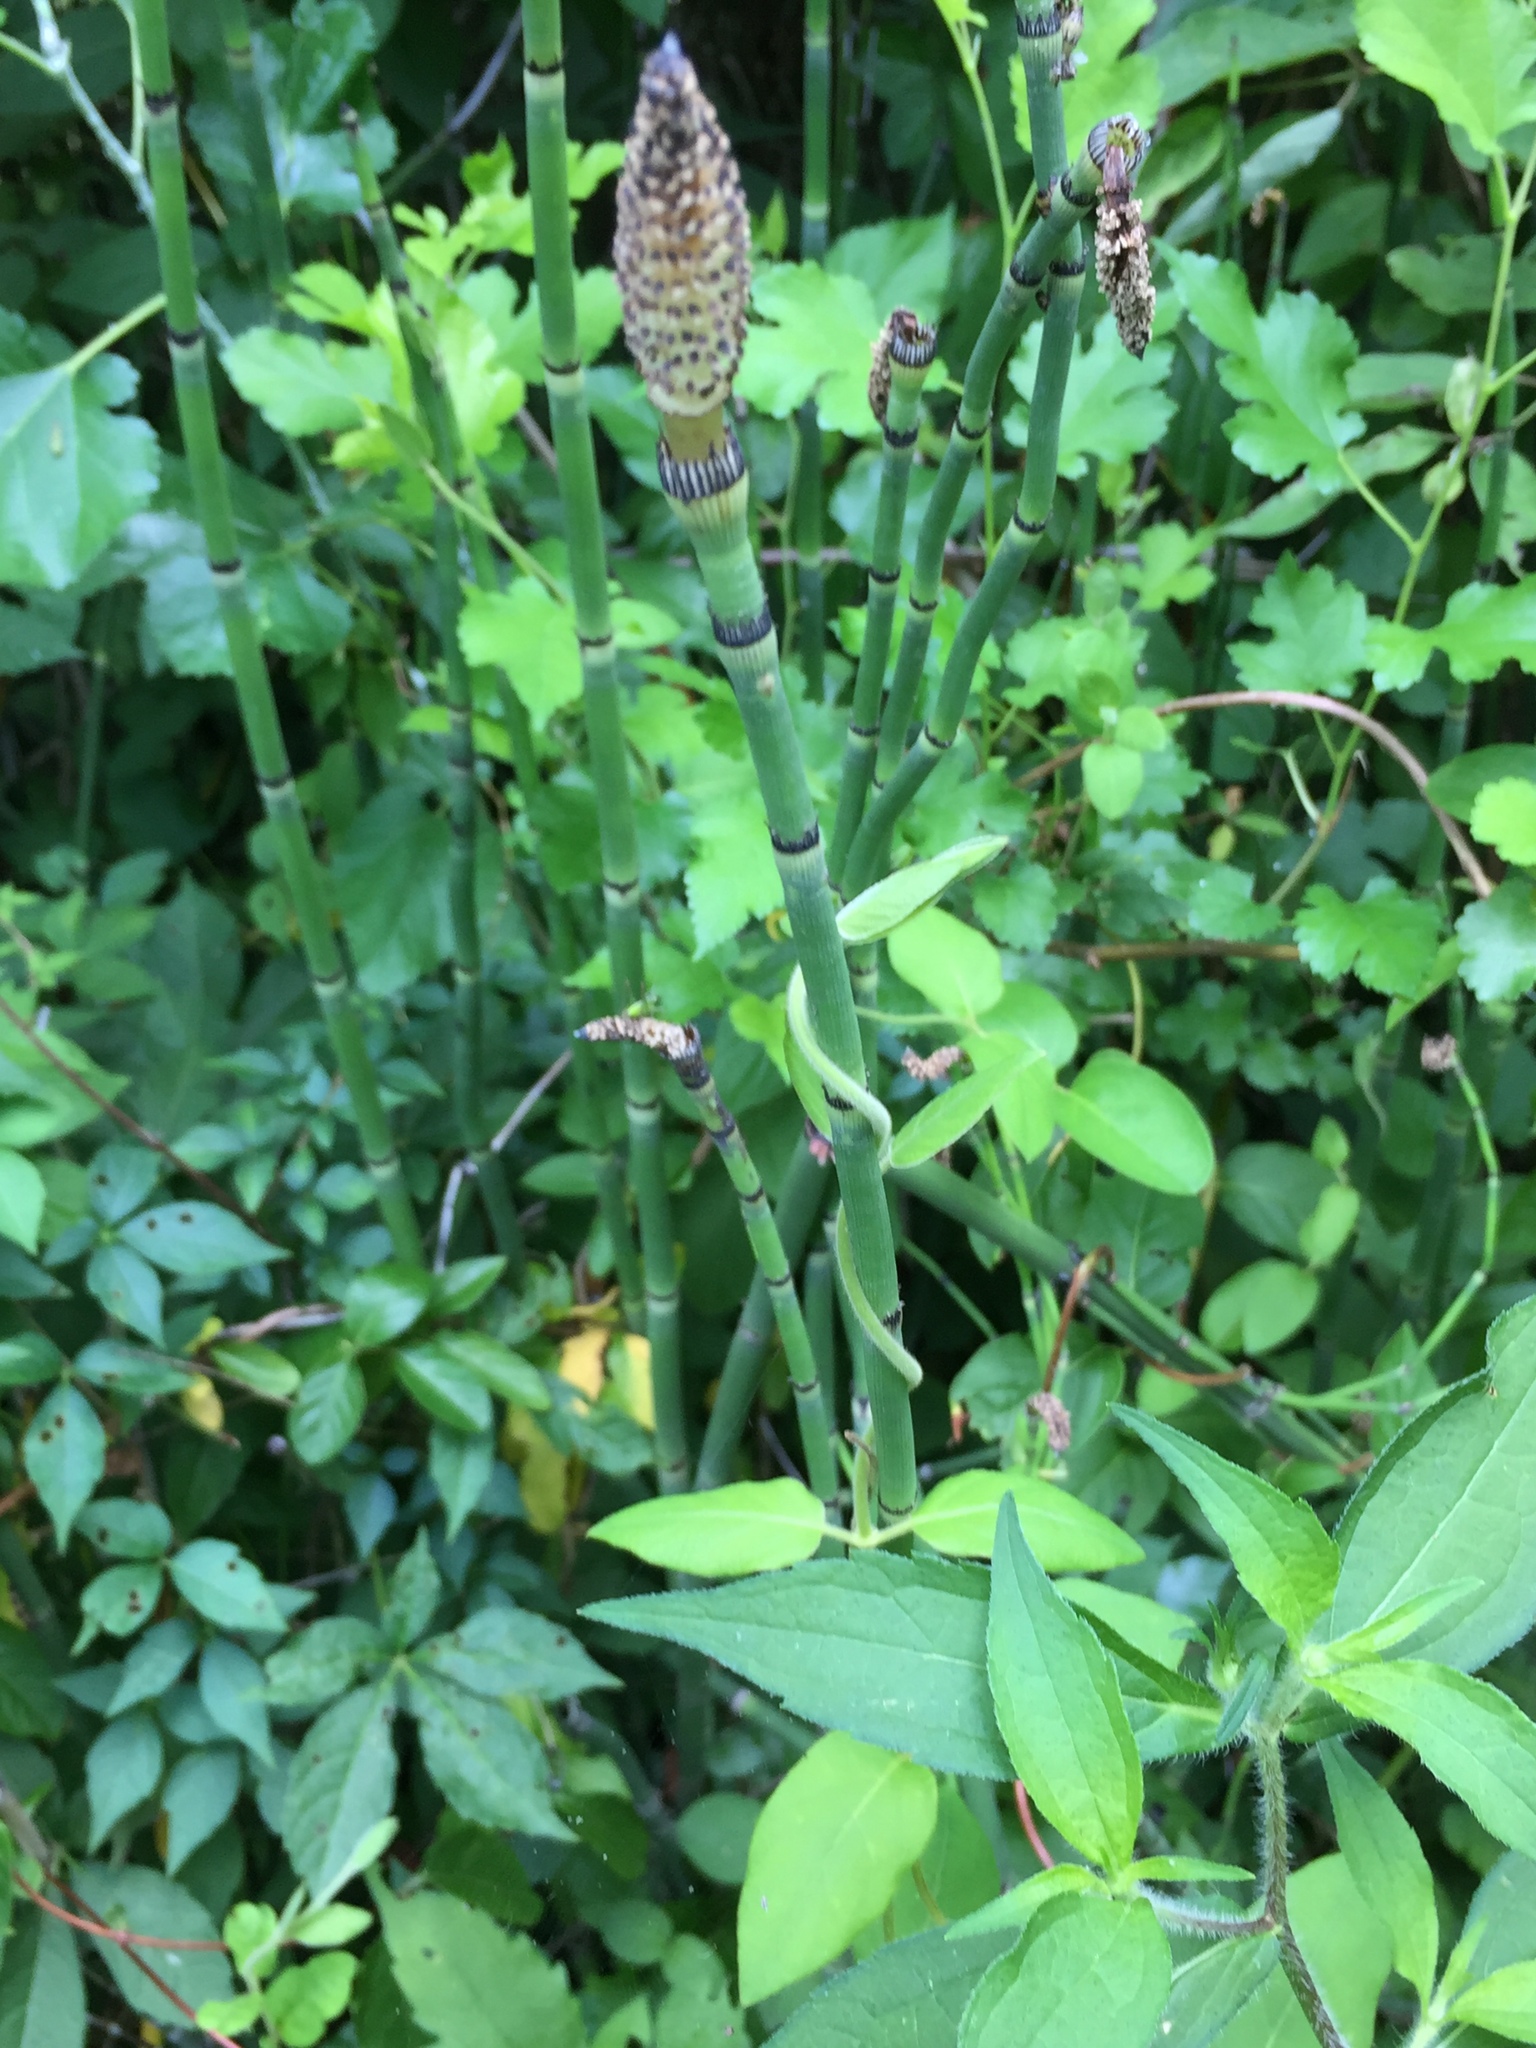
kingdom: Plantae
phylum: Tracheophyta
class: Polypodiopsida
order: Equisetales
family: Equisetaceae
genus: Equisetum
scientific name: Equisetum hyemale
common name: Rough horsetail
